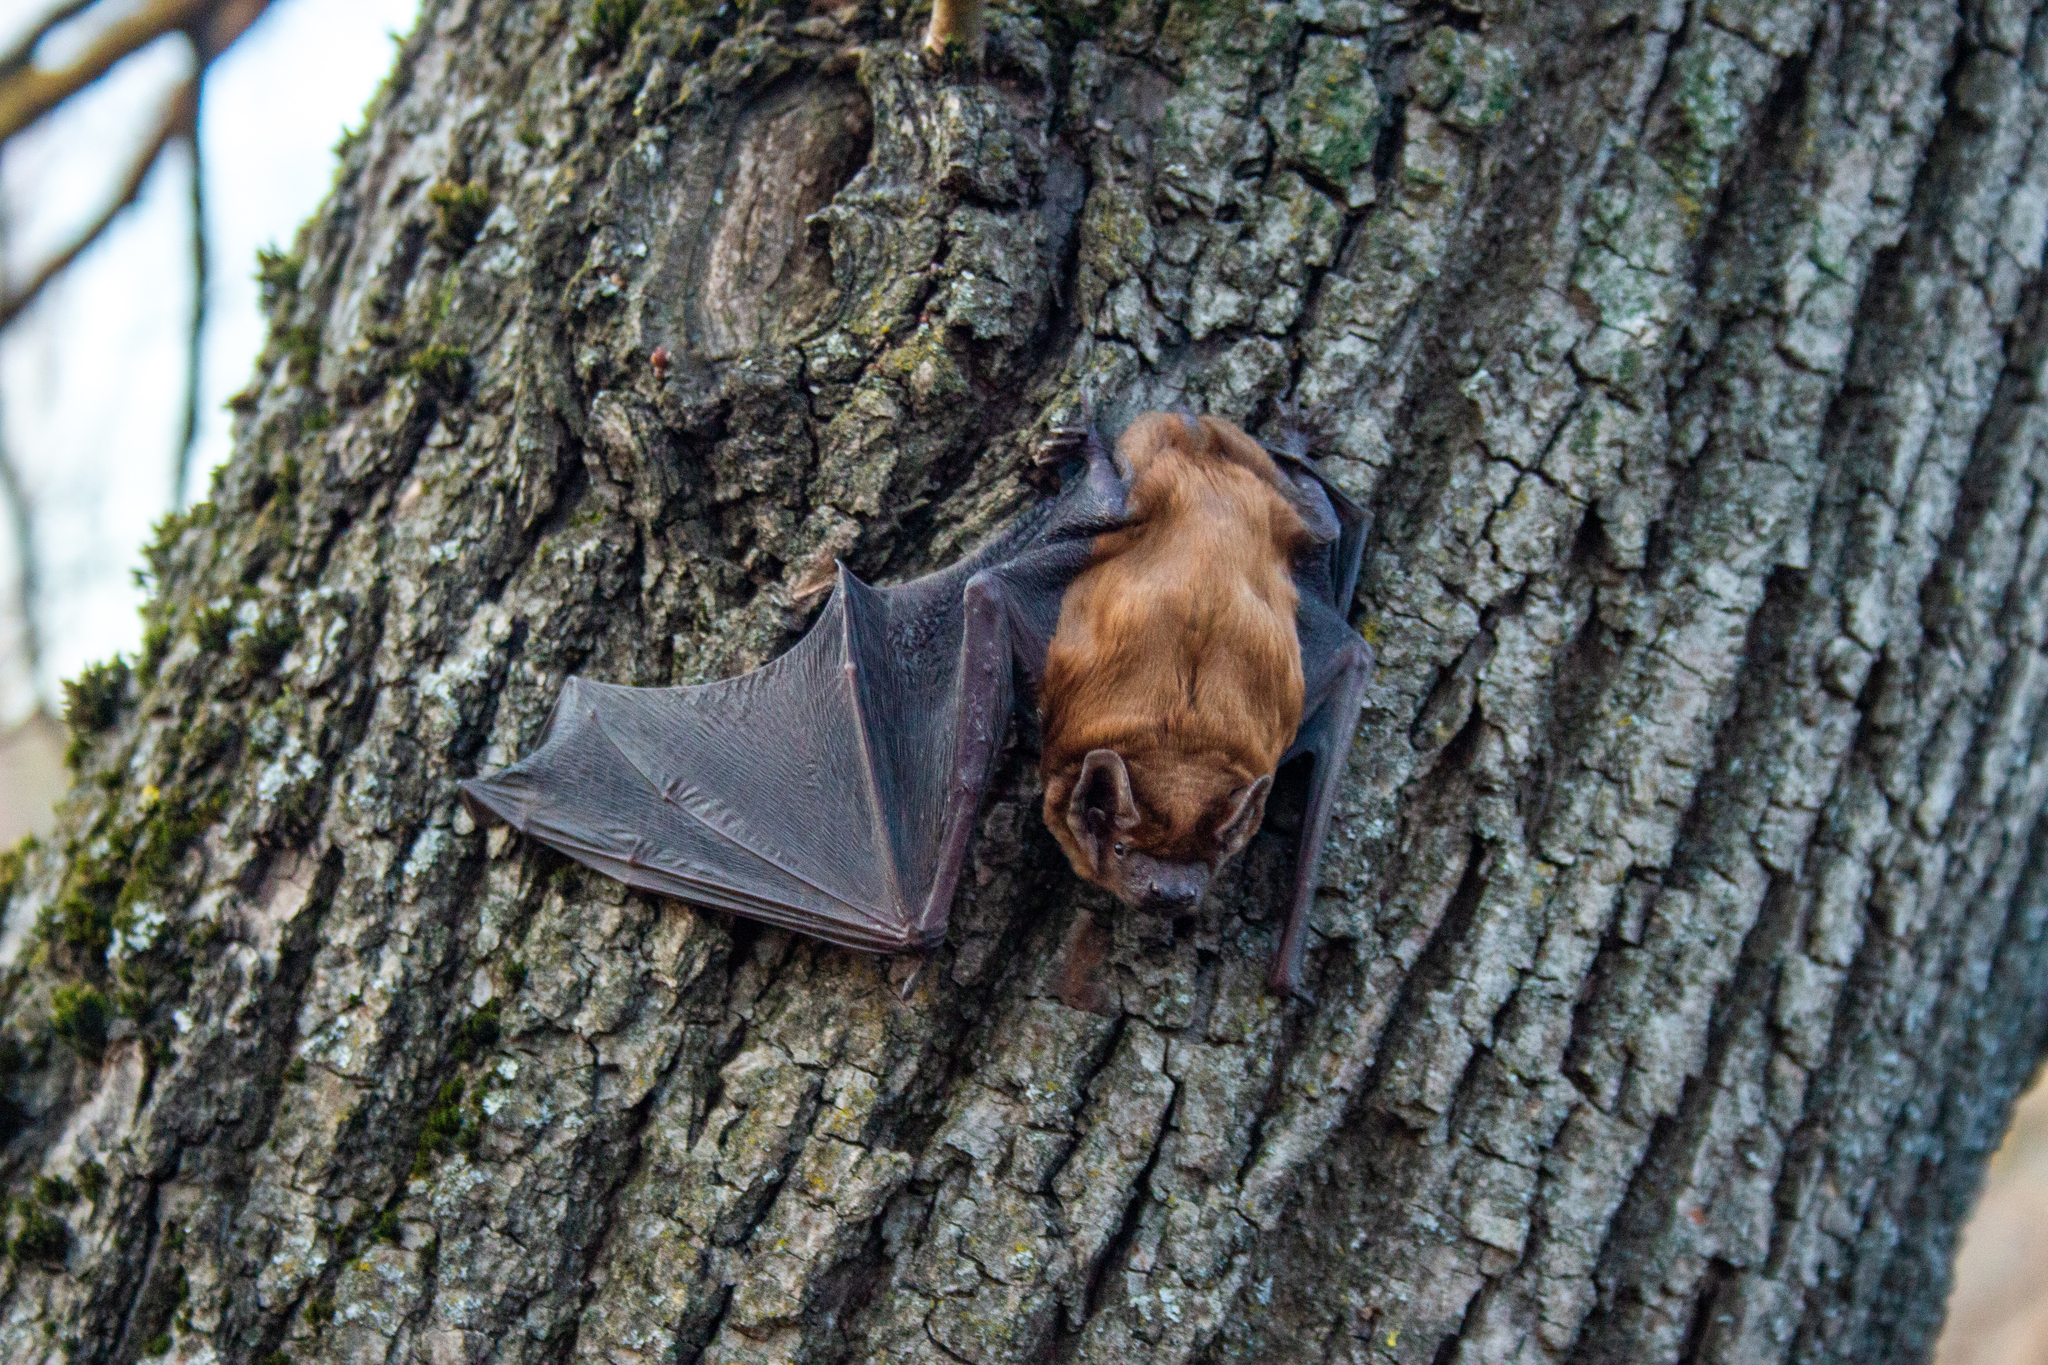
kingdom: Animalia
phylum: Chordata
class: Mammalia
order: Chiroptera
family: Vespertilionidae
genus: Nyctalus
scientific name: Nyctalus noctula
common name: Noctule
